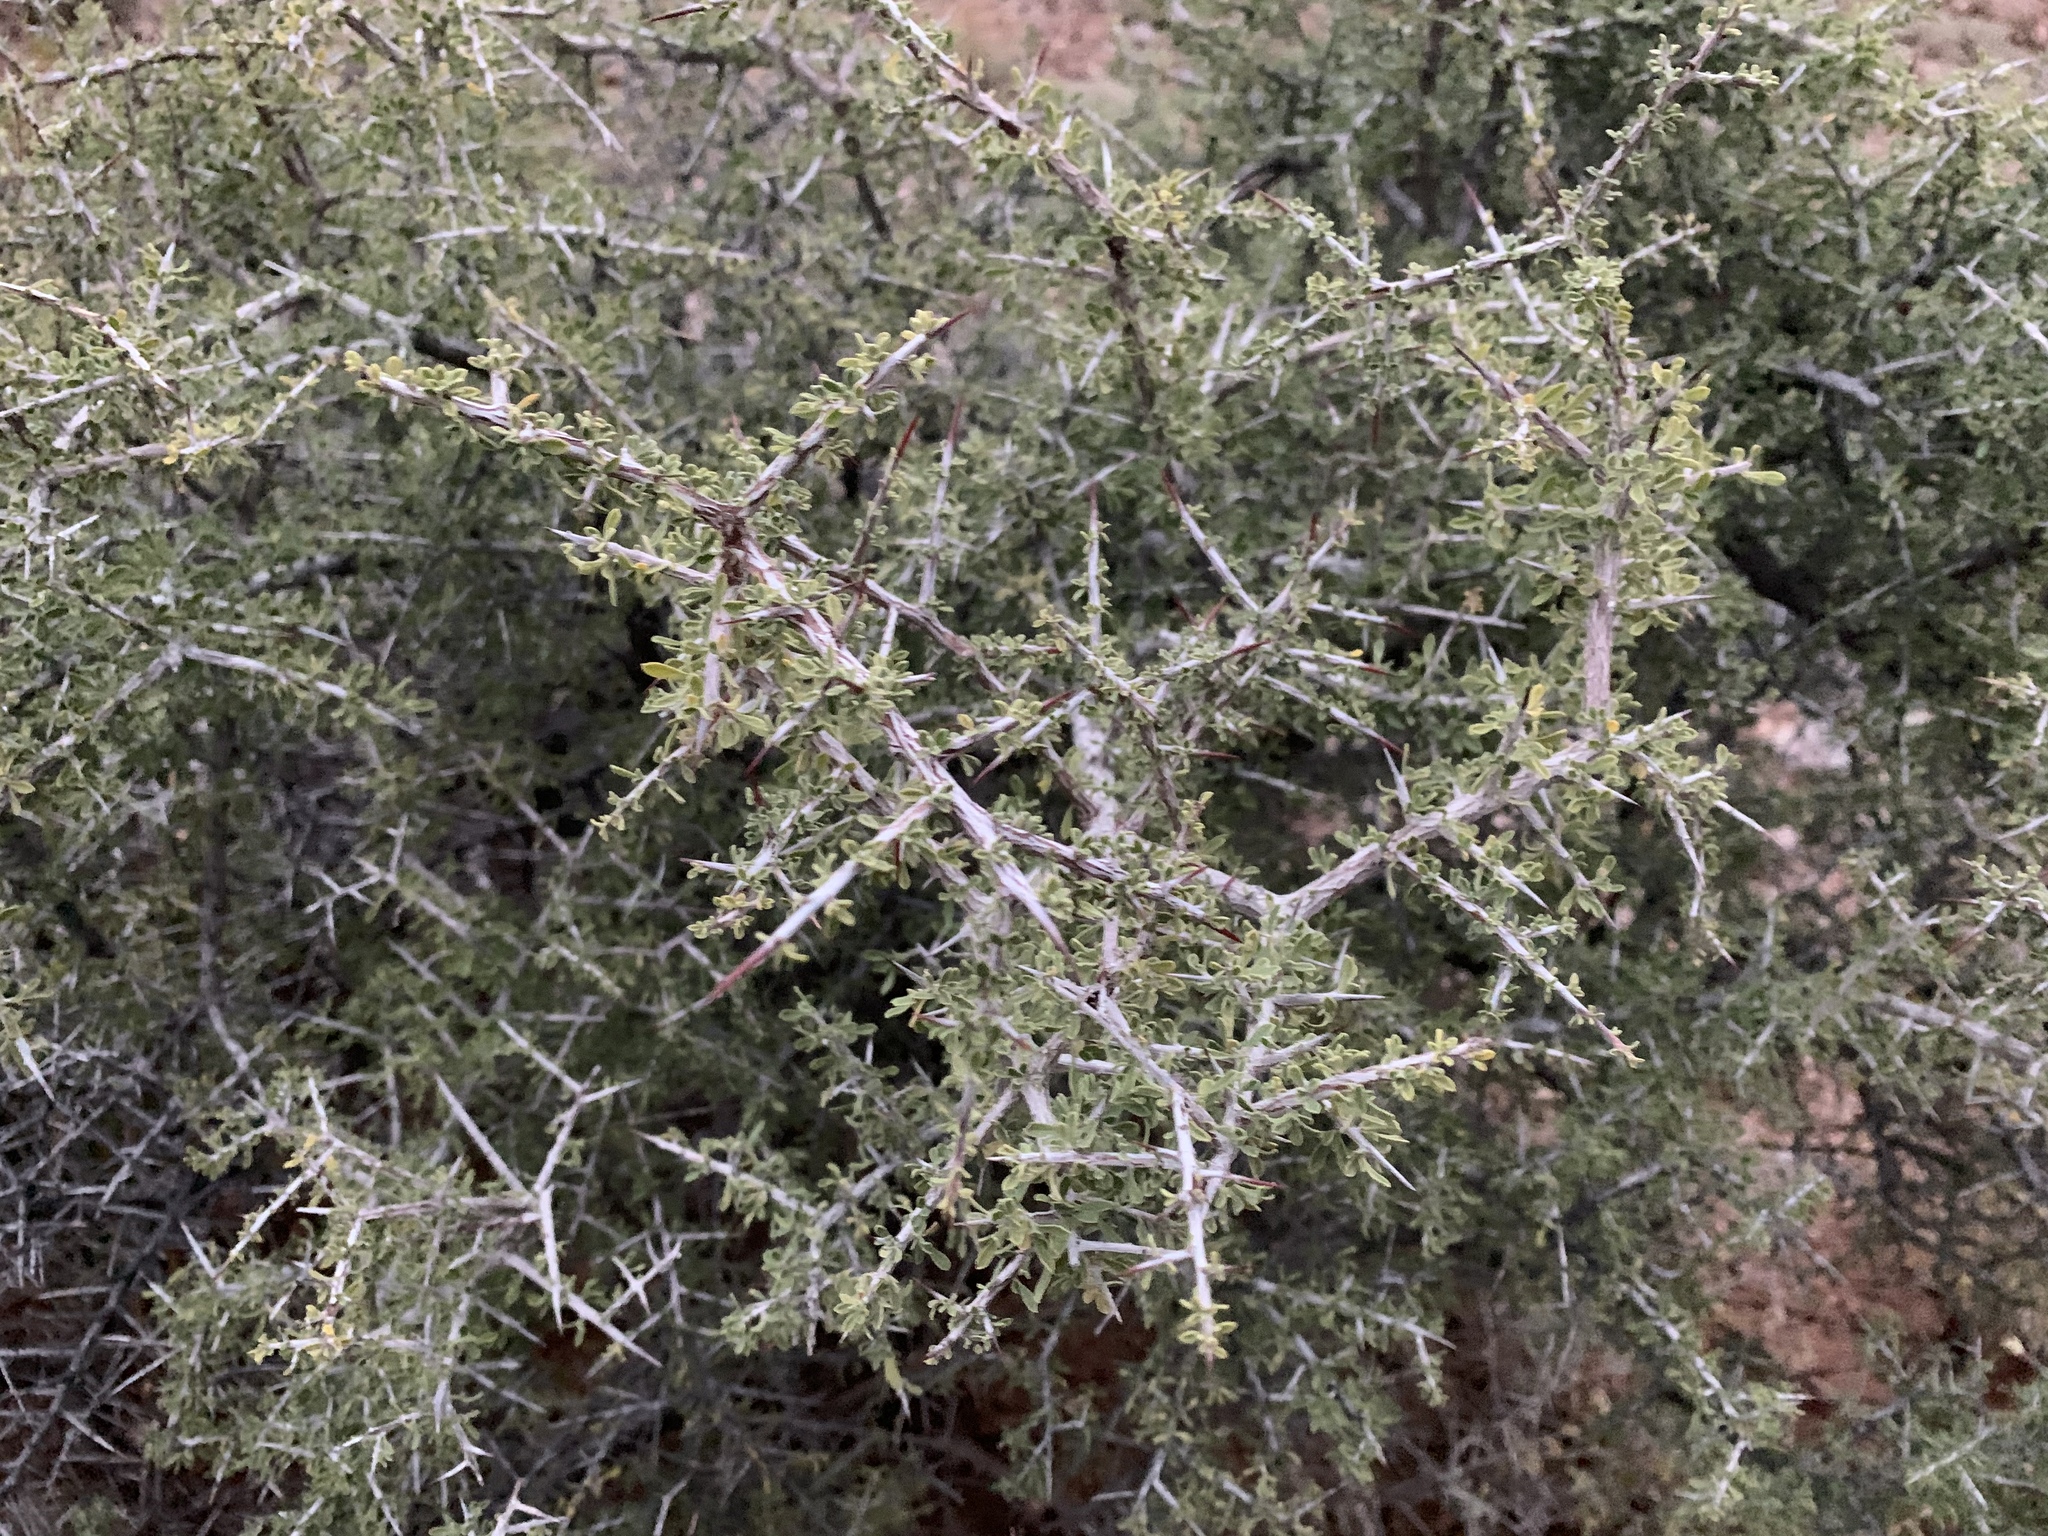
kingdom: Plantae
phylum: Tracheophyta
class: Magnoliopsida
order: Rosales
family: Rhamnaceae
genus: Condalia
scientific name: Condalia warnockii
